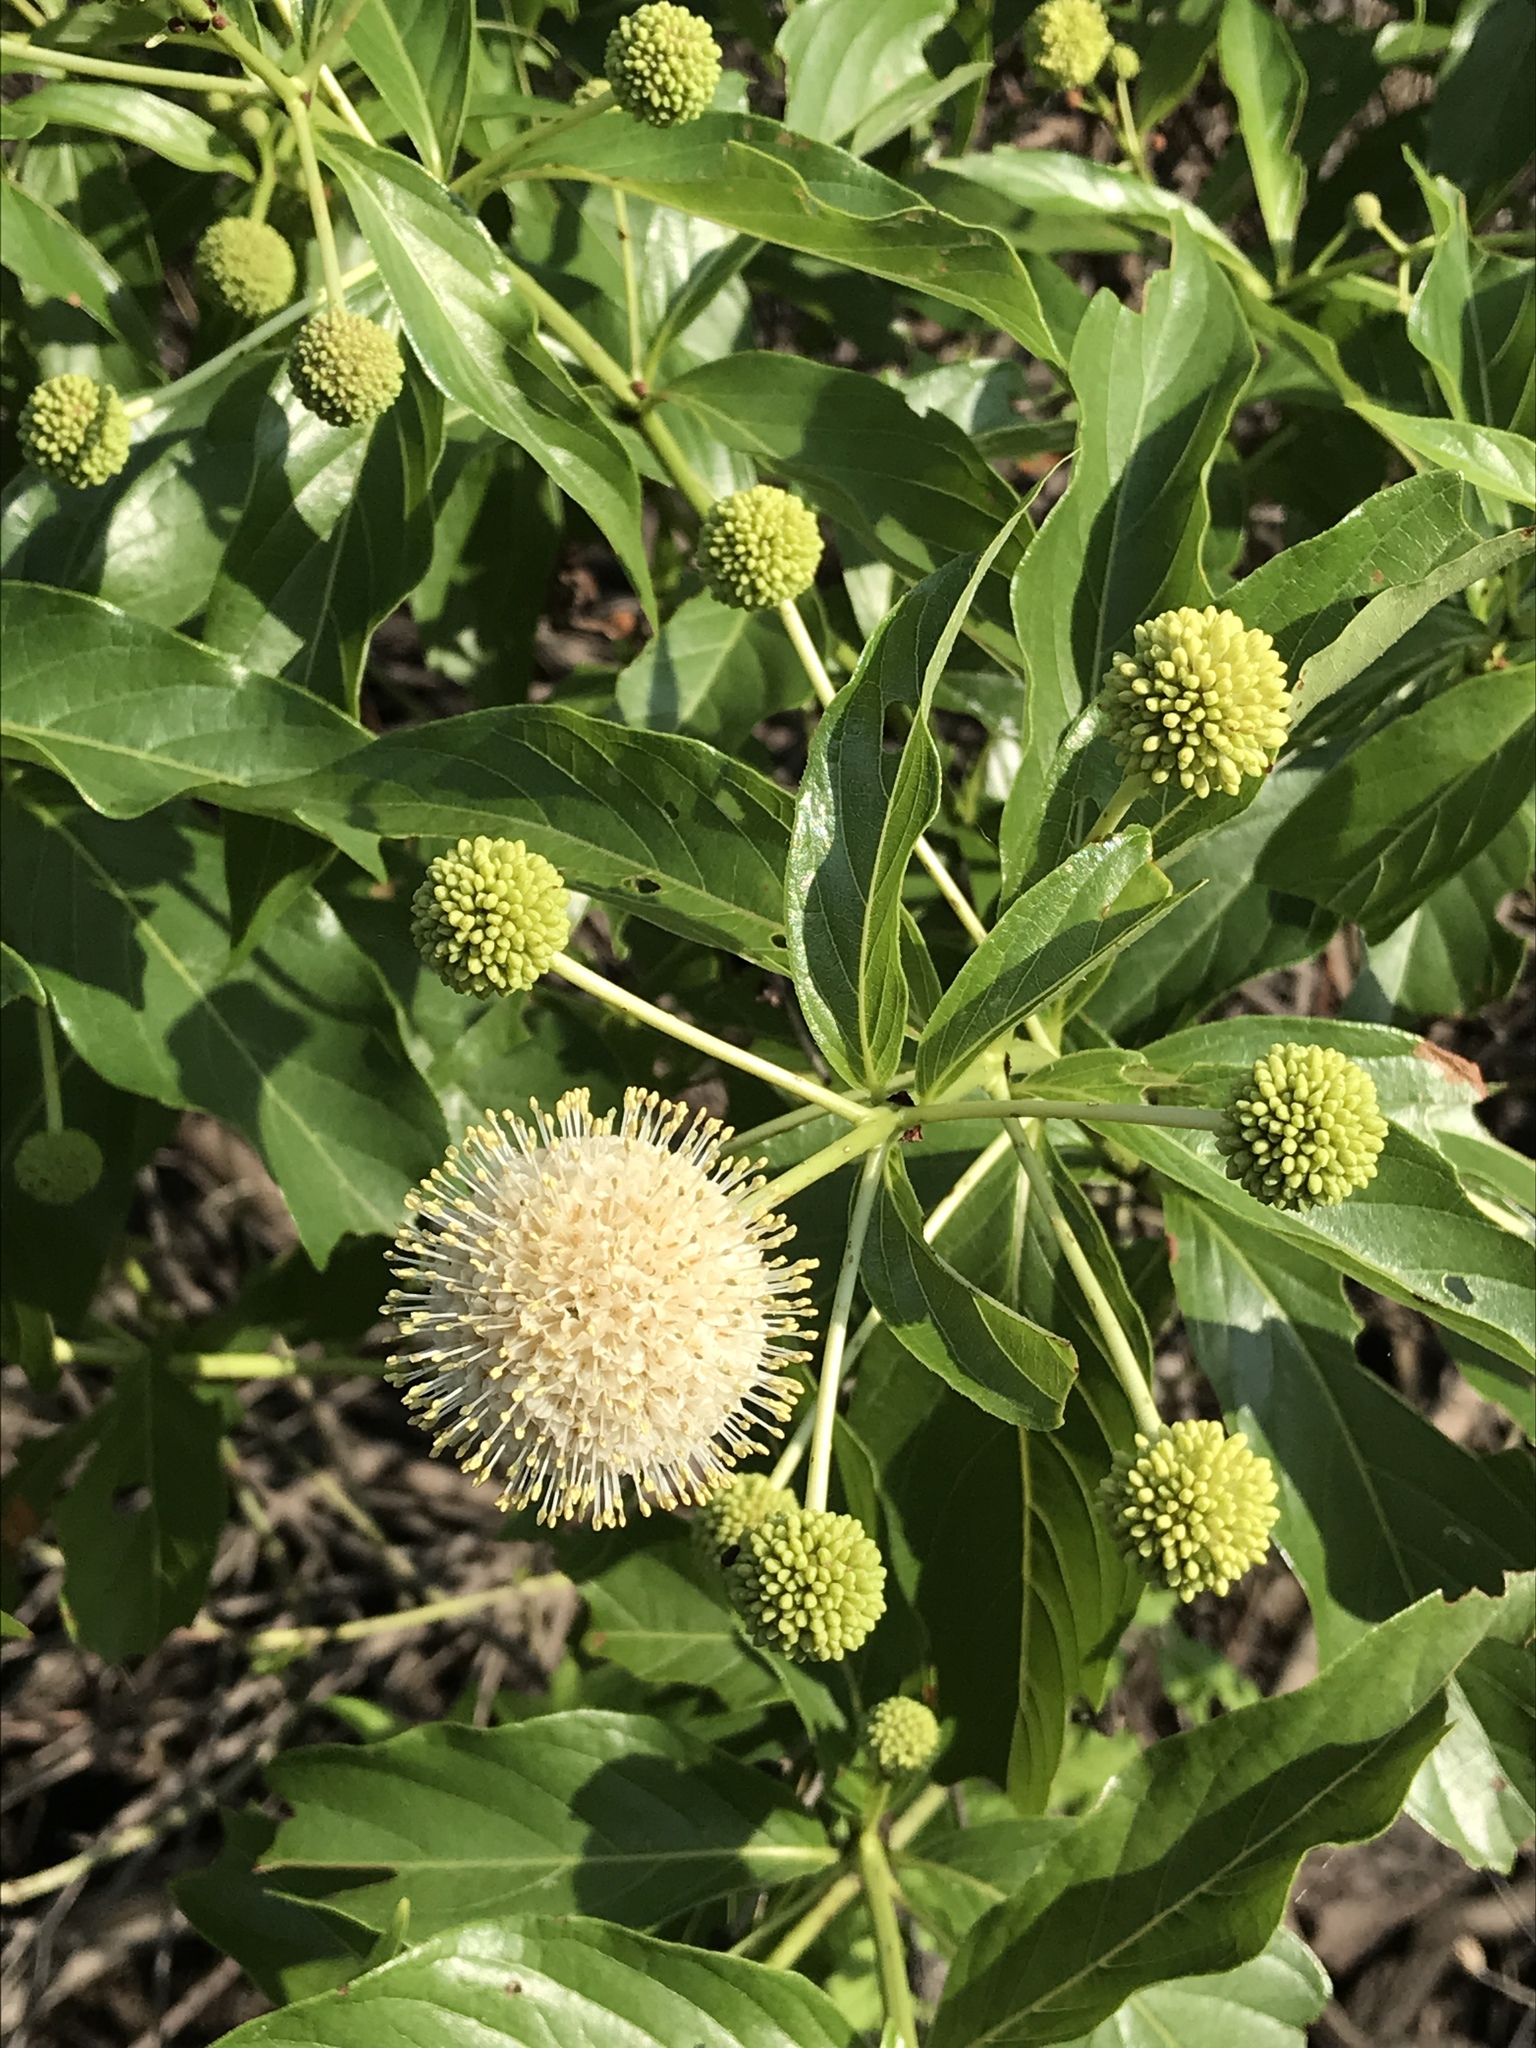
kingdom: Plantae
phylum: Tracheophyta
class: Magnoliopsida
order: Gentianales
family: Rubiaceae
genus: Cephalanthus
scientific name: Cephalanthus occidentalis
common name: Button-willow
